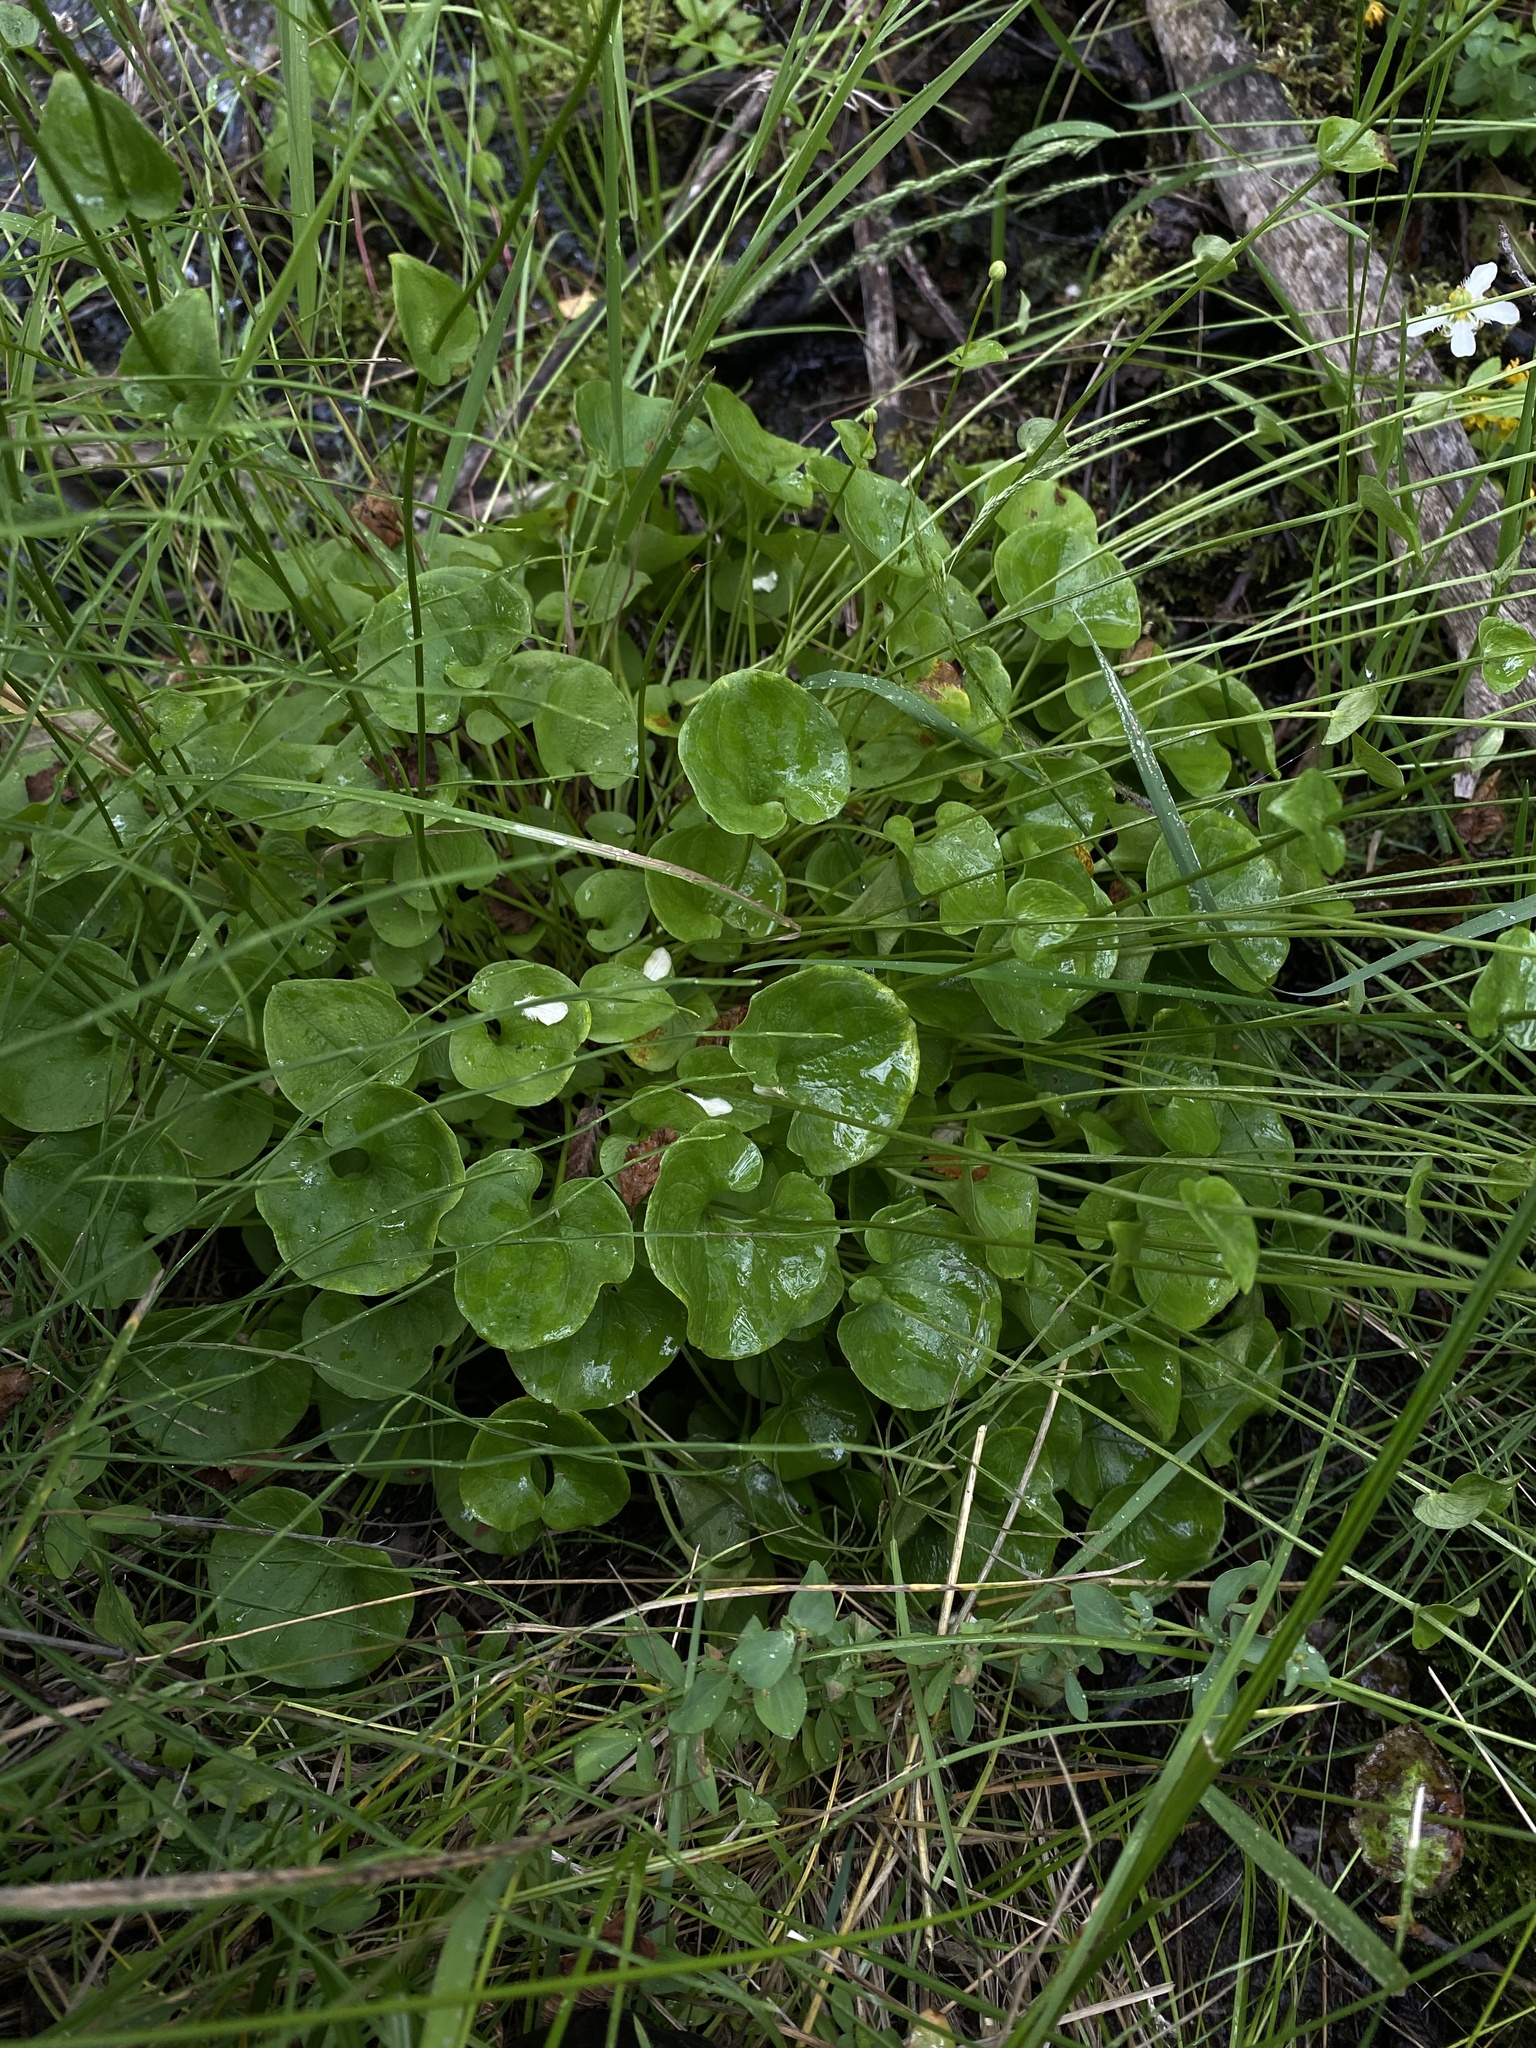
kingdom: Plantae
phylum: Tracheophyta
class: Magnoliopsida
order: Celastrales
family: Parnassiaceae
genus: Parnassia
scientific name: Parnassia fimbriata
